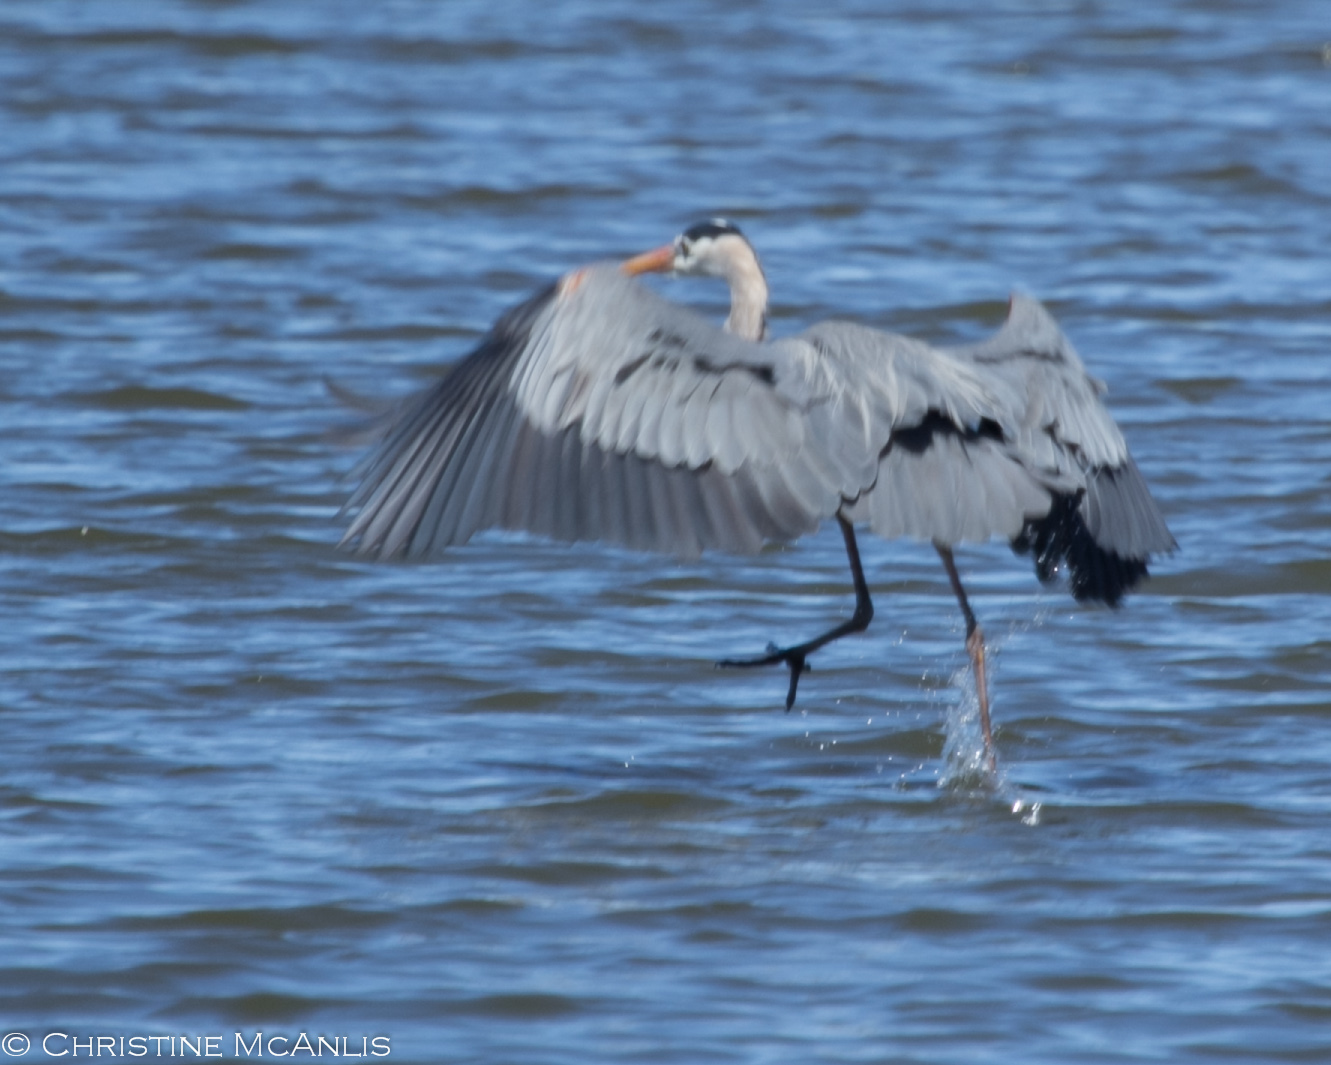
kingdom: Animalia
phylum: Chordata
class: Aves
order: Pelecaniformes
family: Ardeidae
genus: Ardea
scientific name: Ardea herodias
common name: Great blue heron
